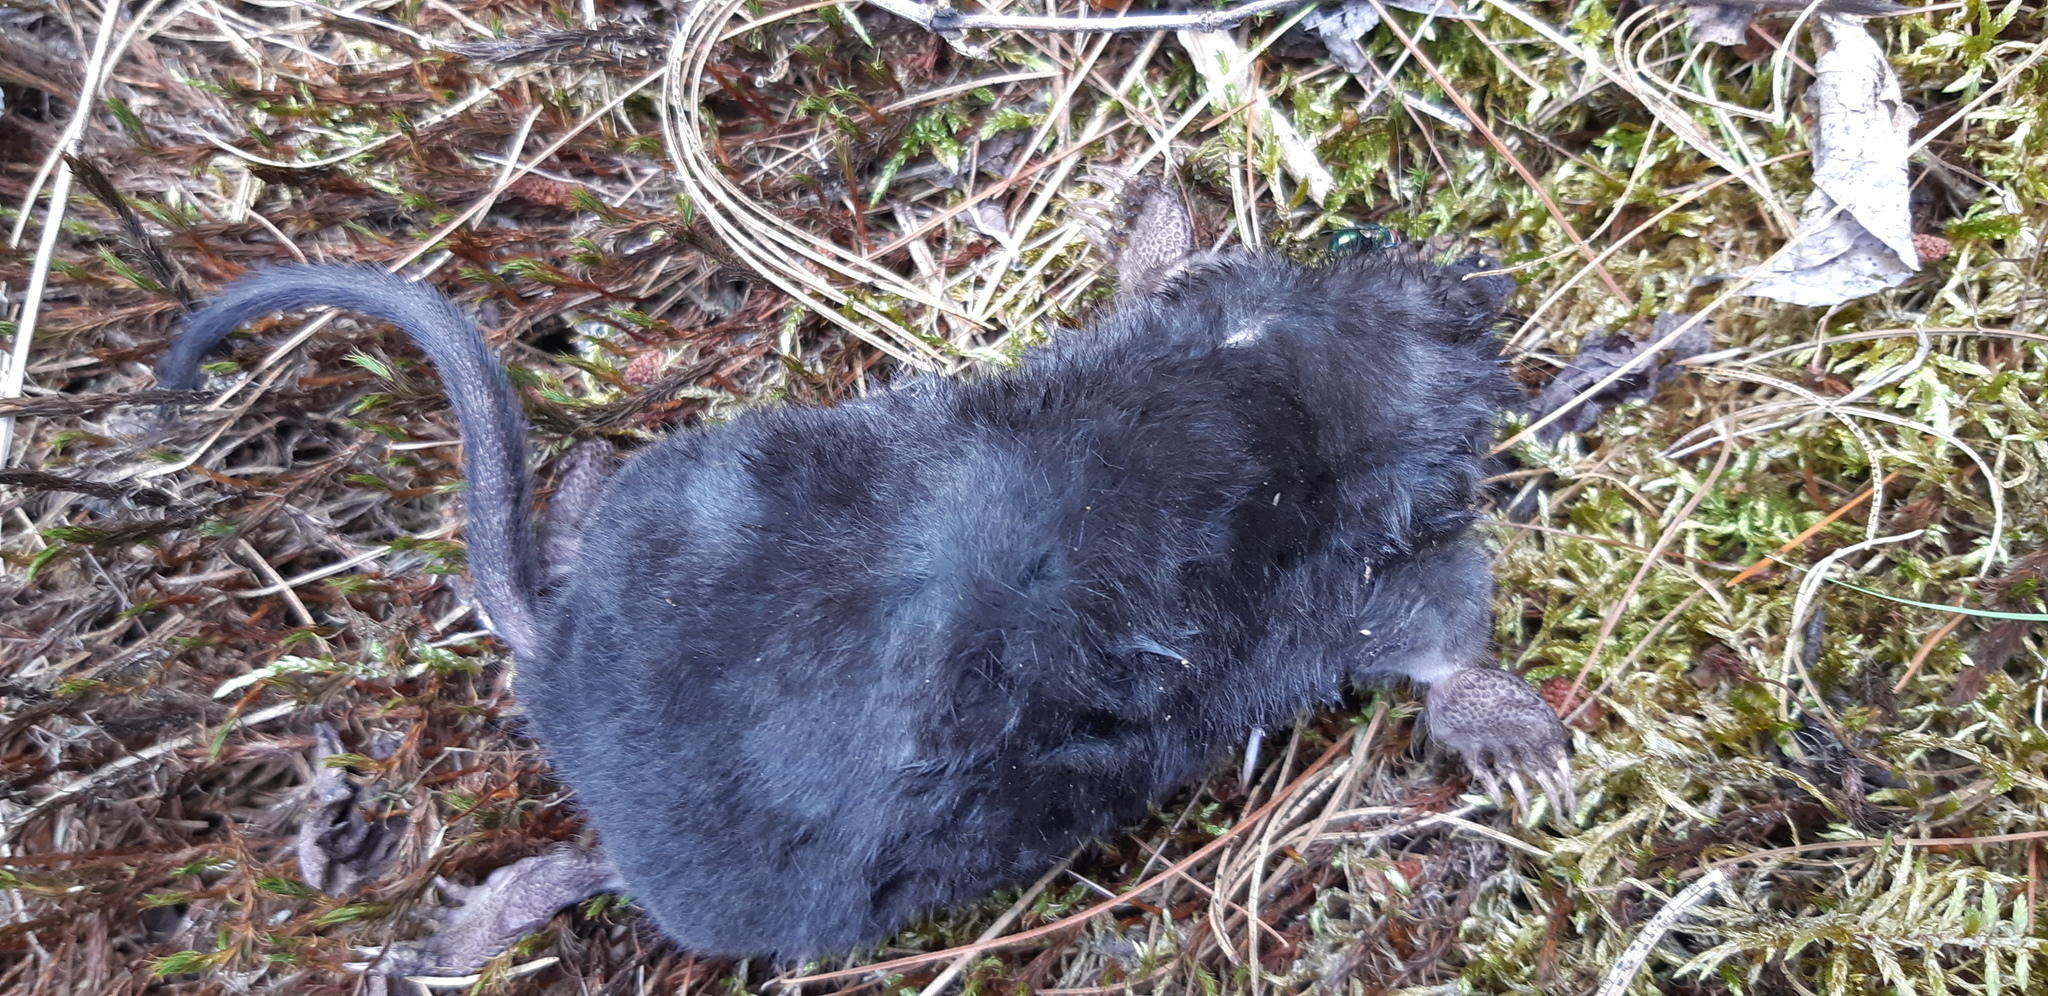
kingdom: Animalia
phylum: Chordata
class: Mammalia
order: Soricomorpha
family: Talpidae
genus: Condylura
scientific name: Condylura cristata
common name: Star-nosed mole
